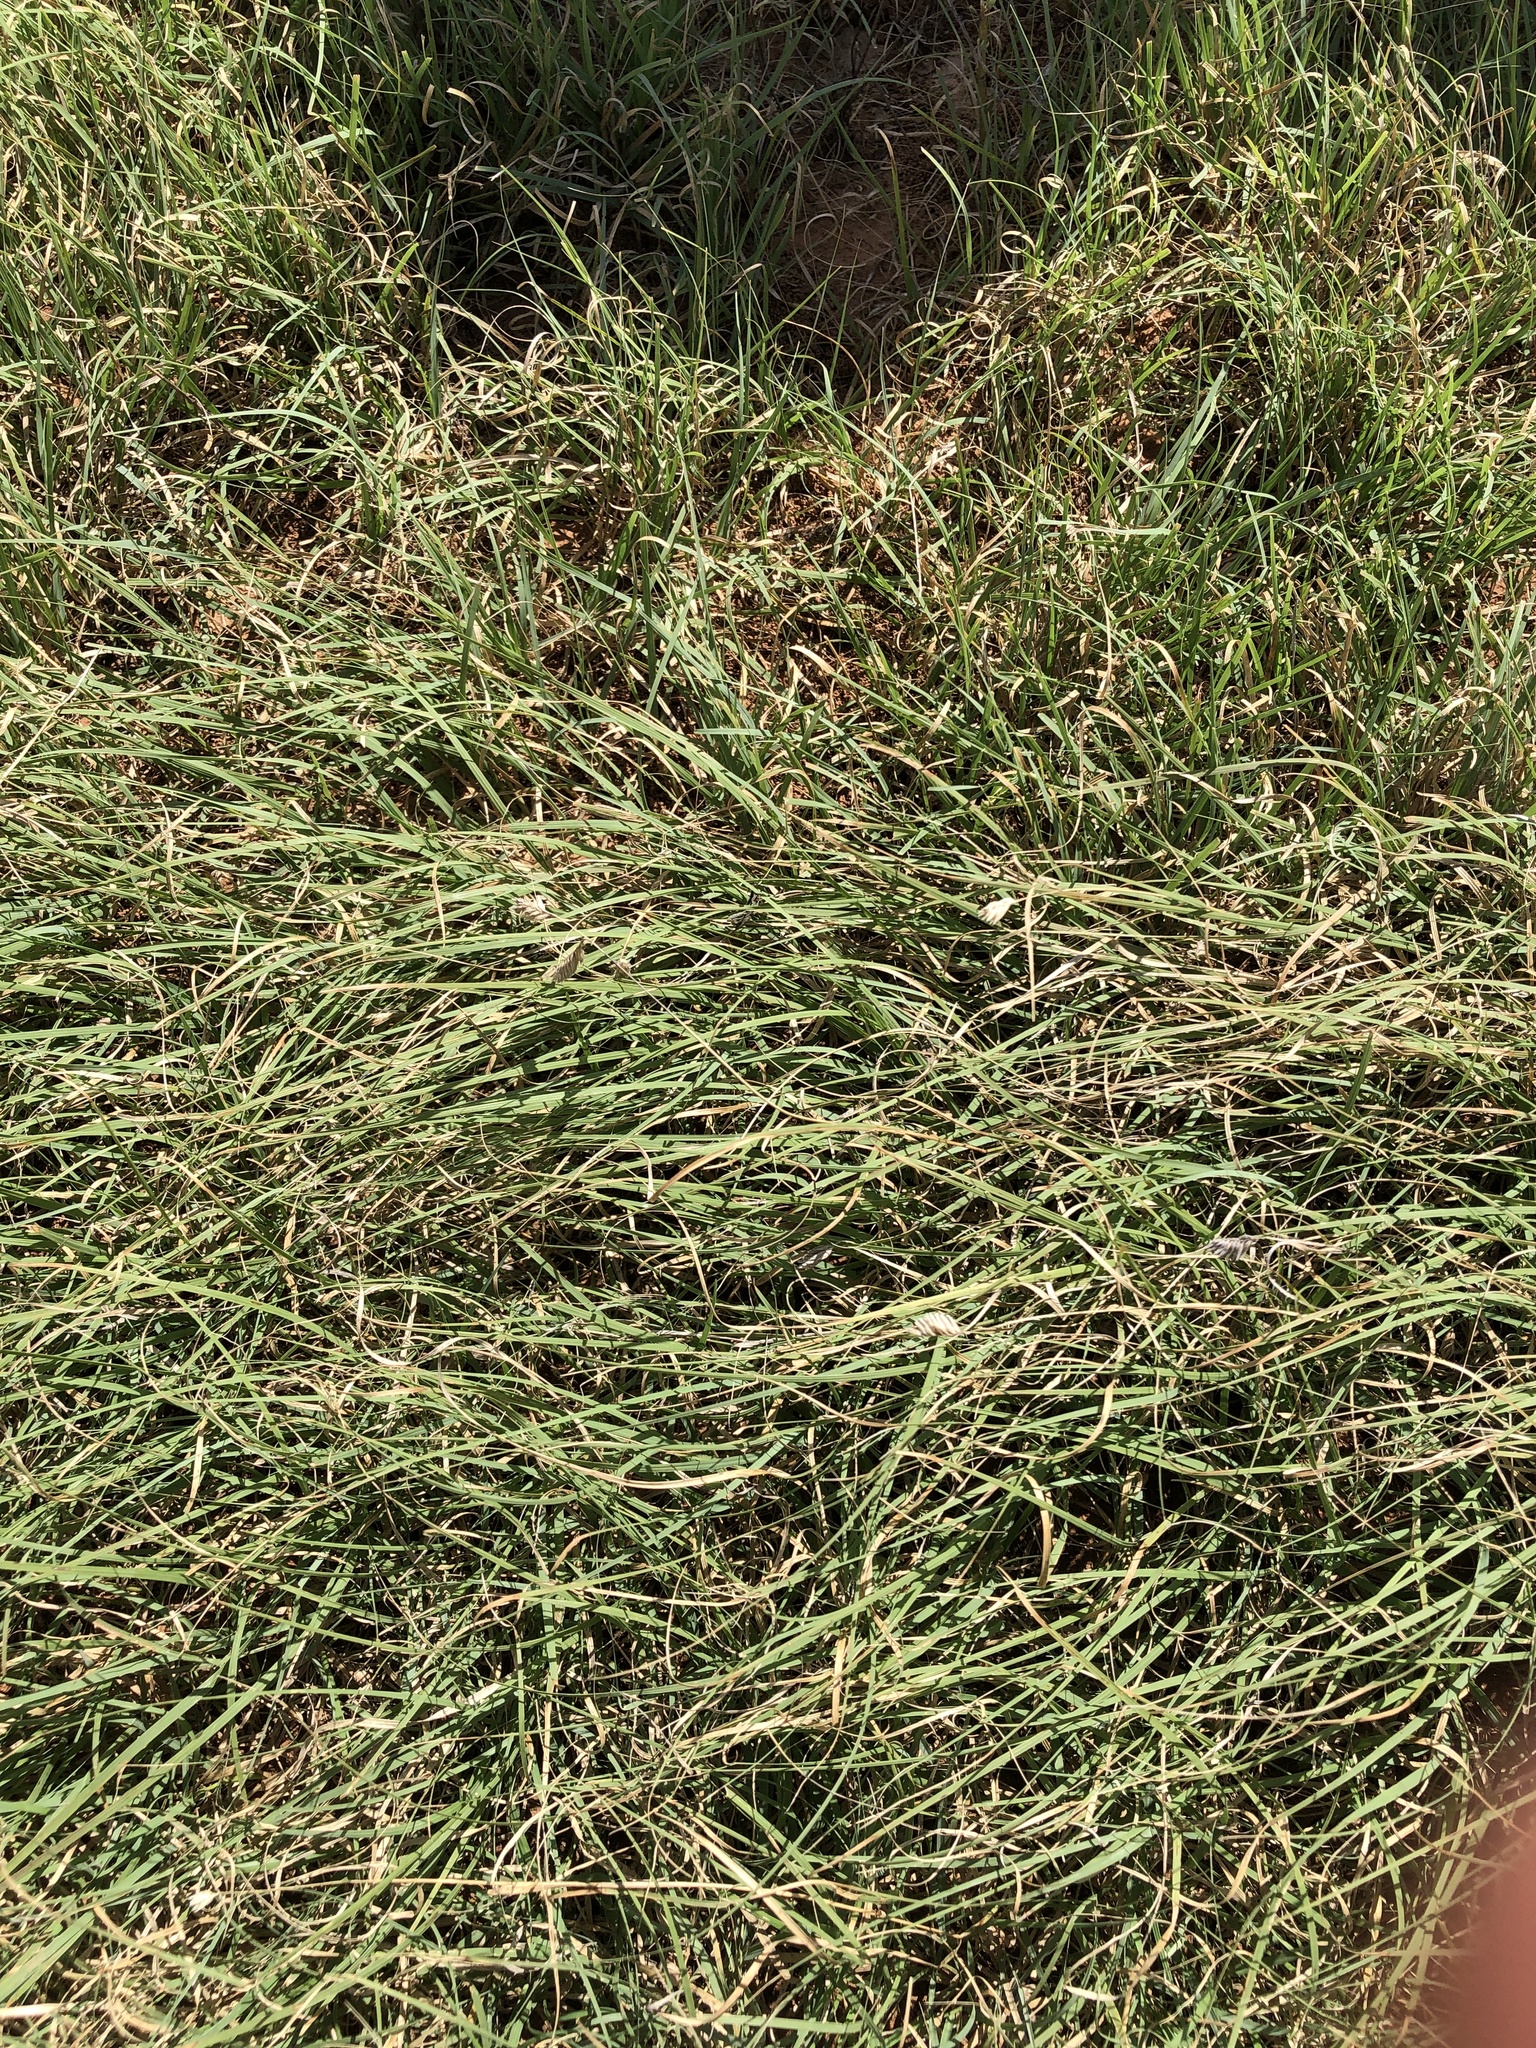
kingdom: Plantae
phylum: Tracheophyta
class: Liliopsida
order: Poales
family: Poaceae
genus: Bouteloua
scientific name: Bouteloua dactyloides
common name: Buffalo grass
